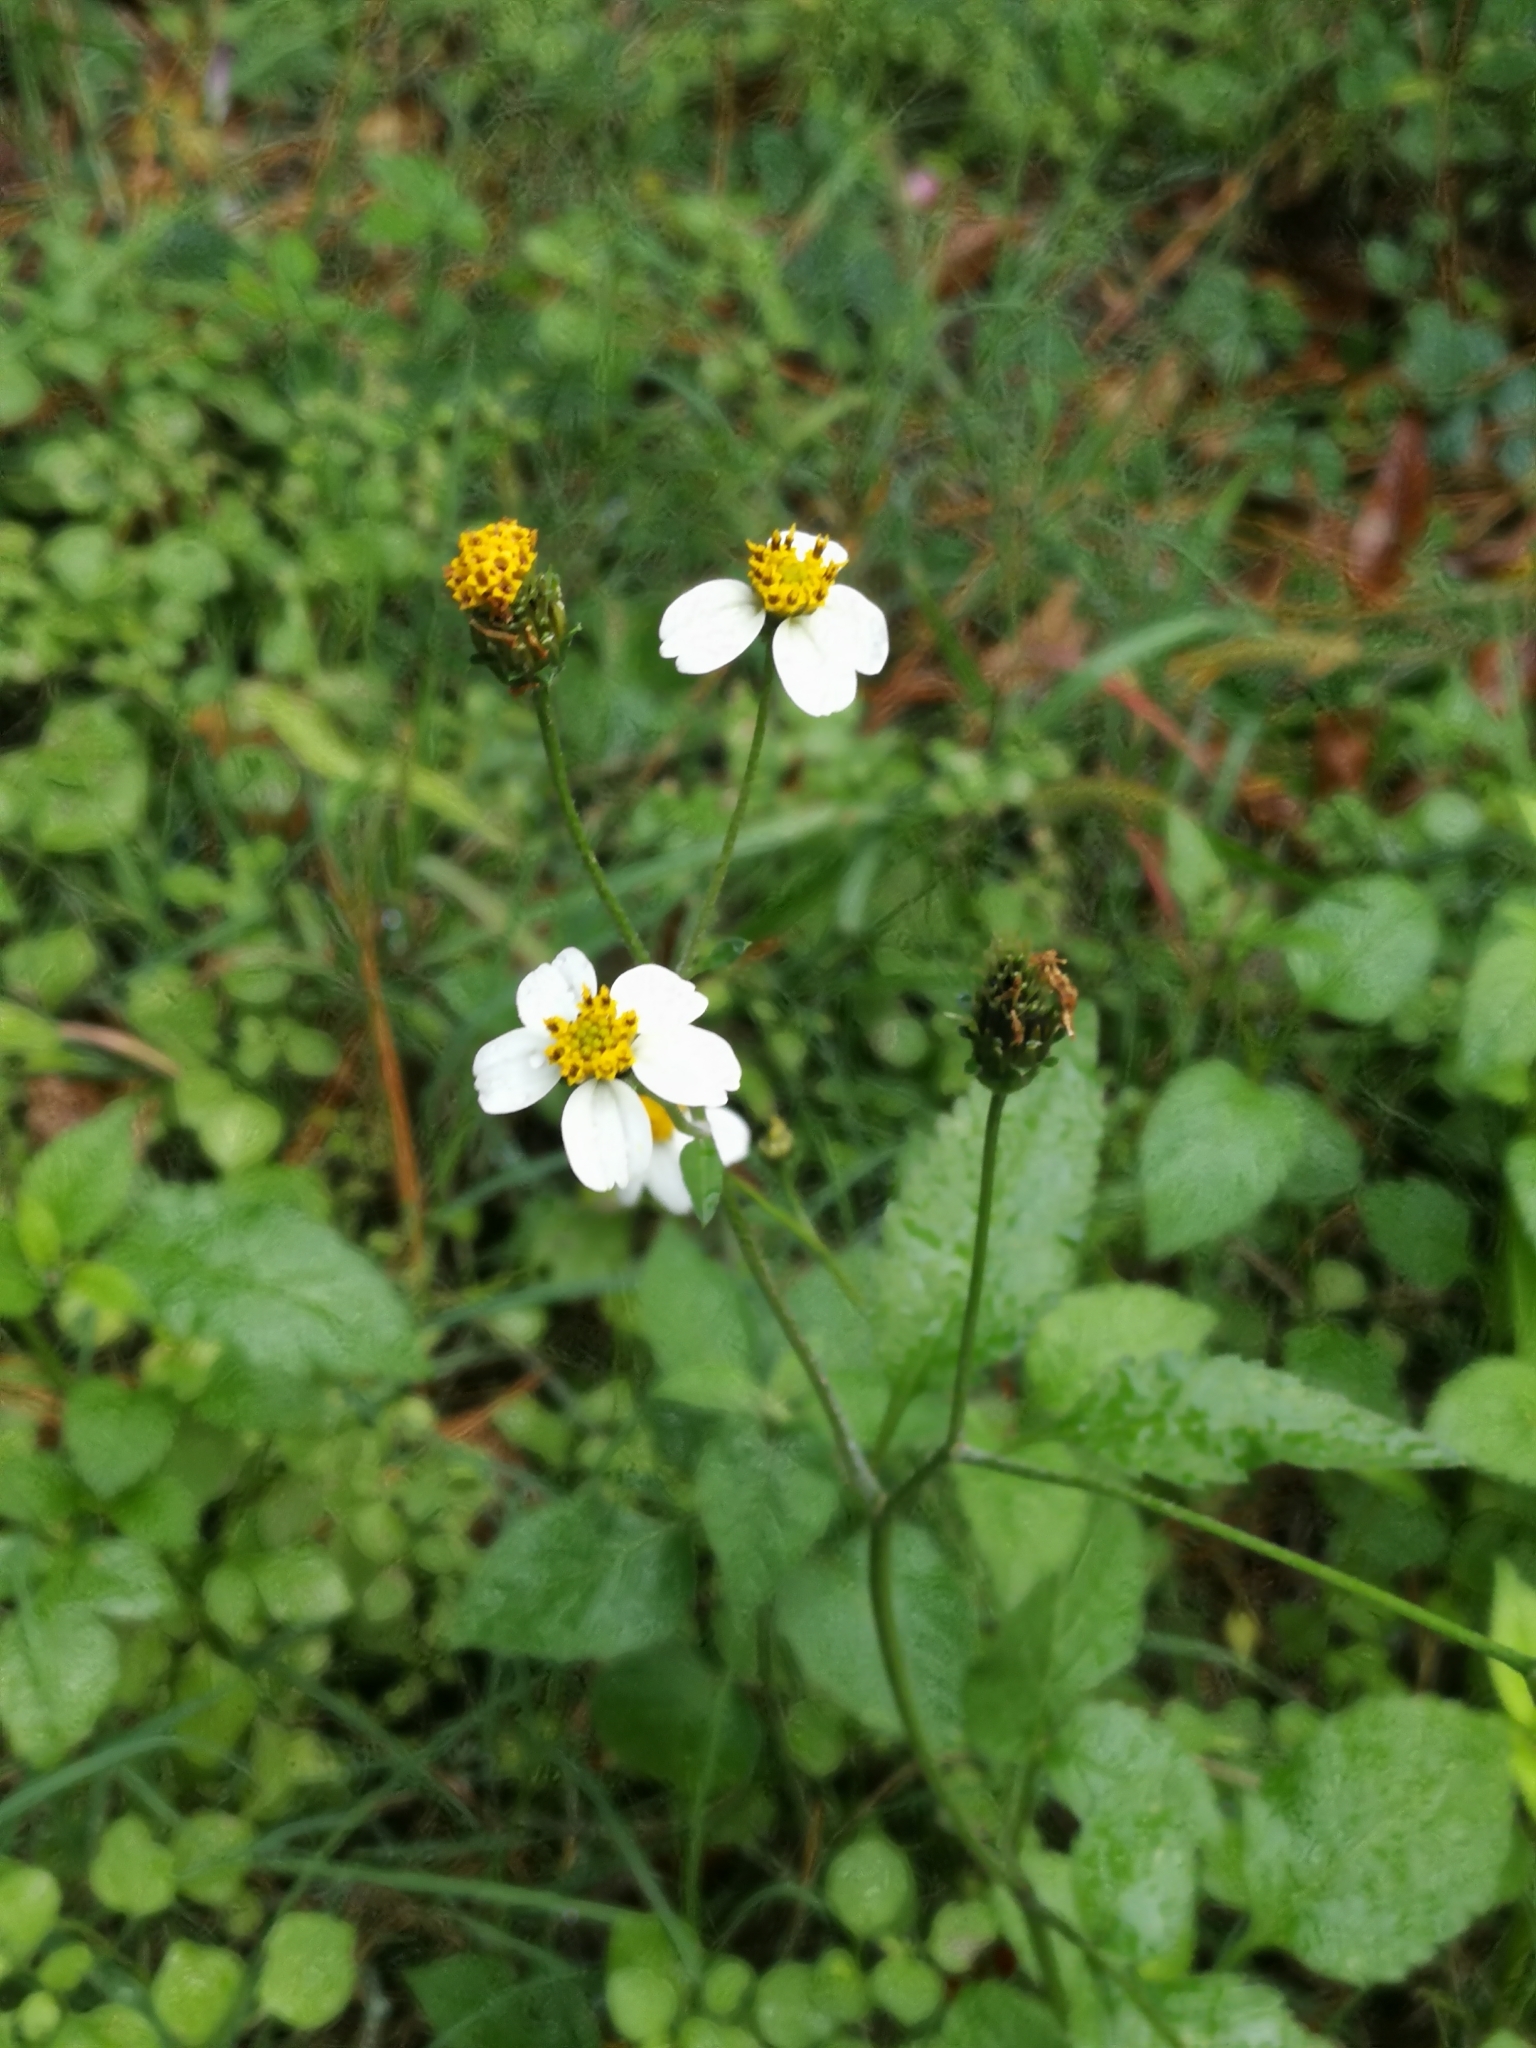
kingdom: Plantae
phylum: Tracheophyta
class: Magnoliopsida
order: Asterales
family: Asteraceae
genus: Bidens
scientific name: Bidens pilosa
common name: Black-jack
